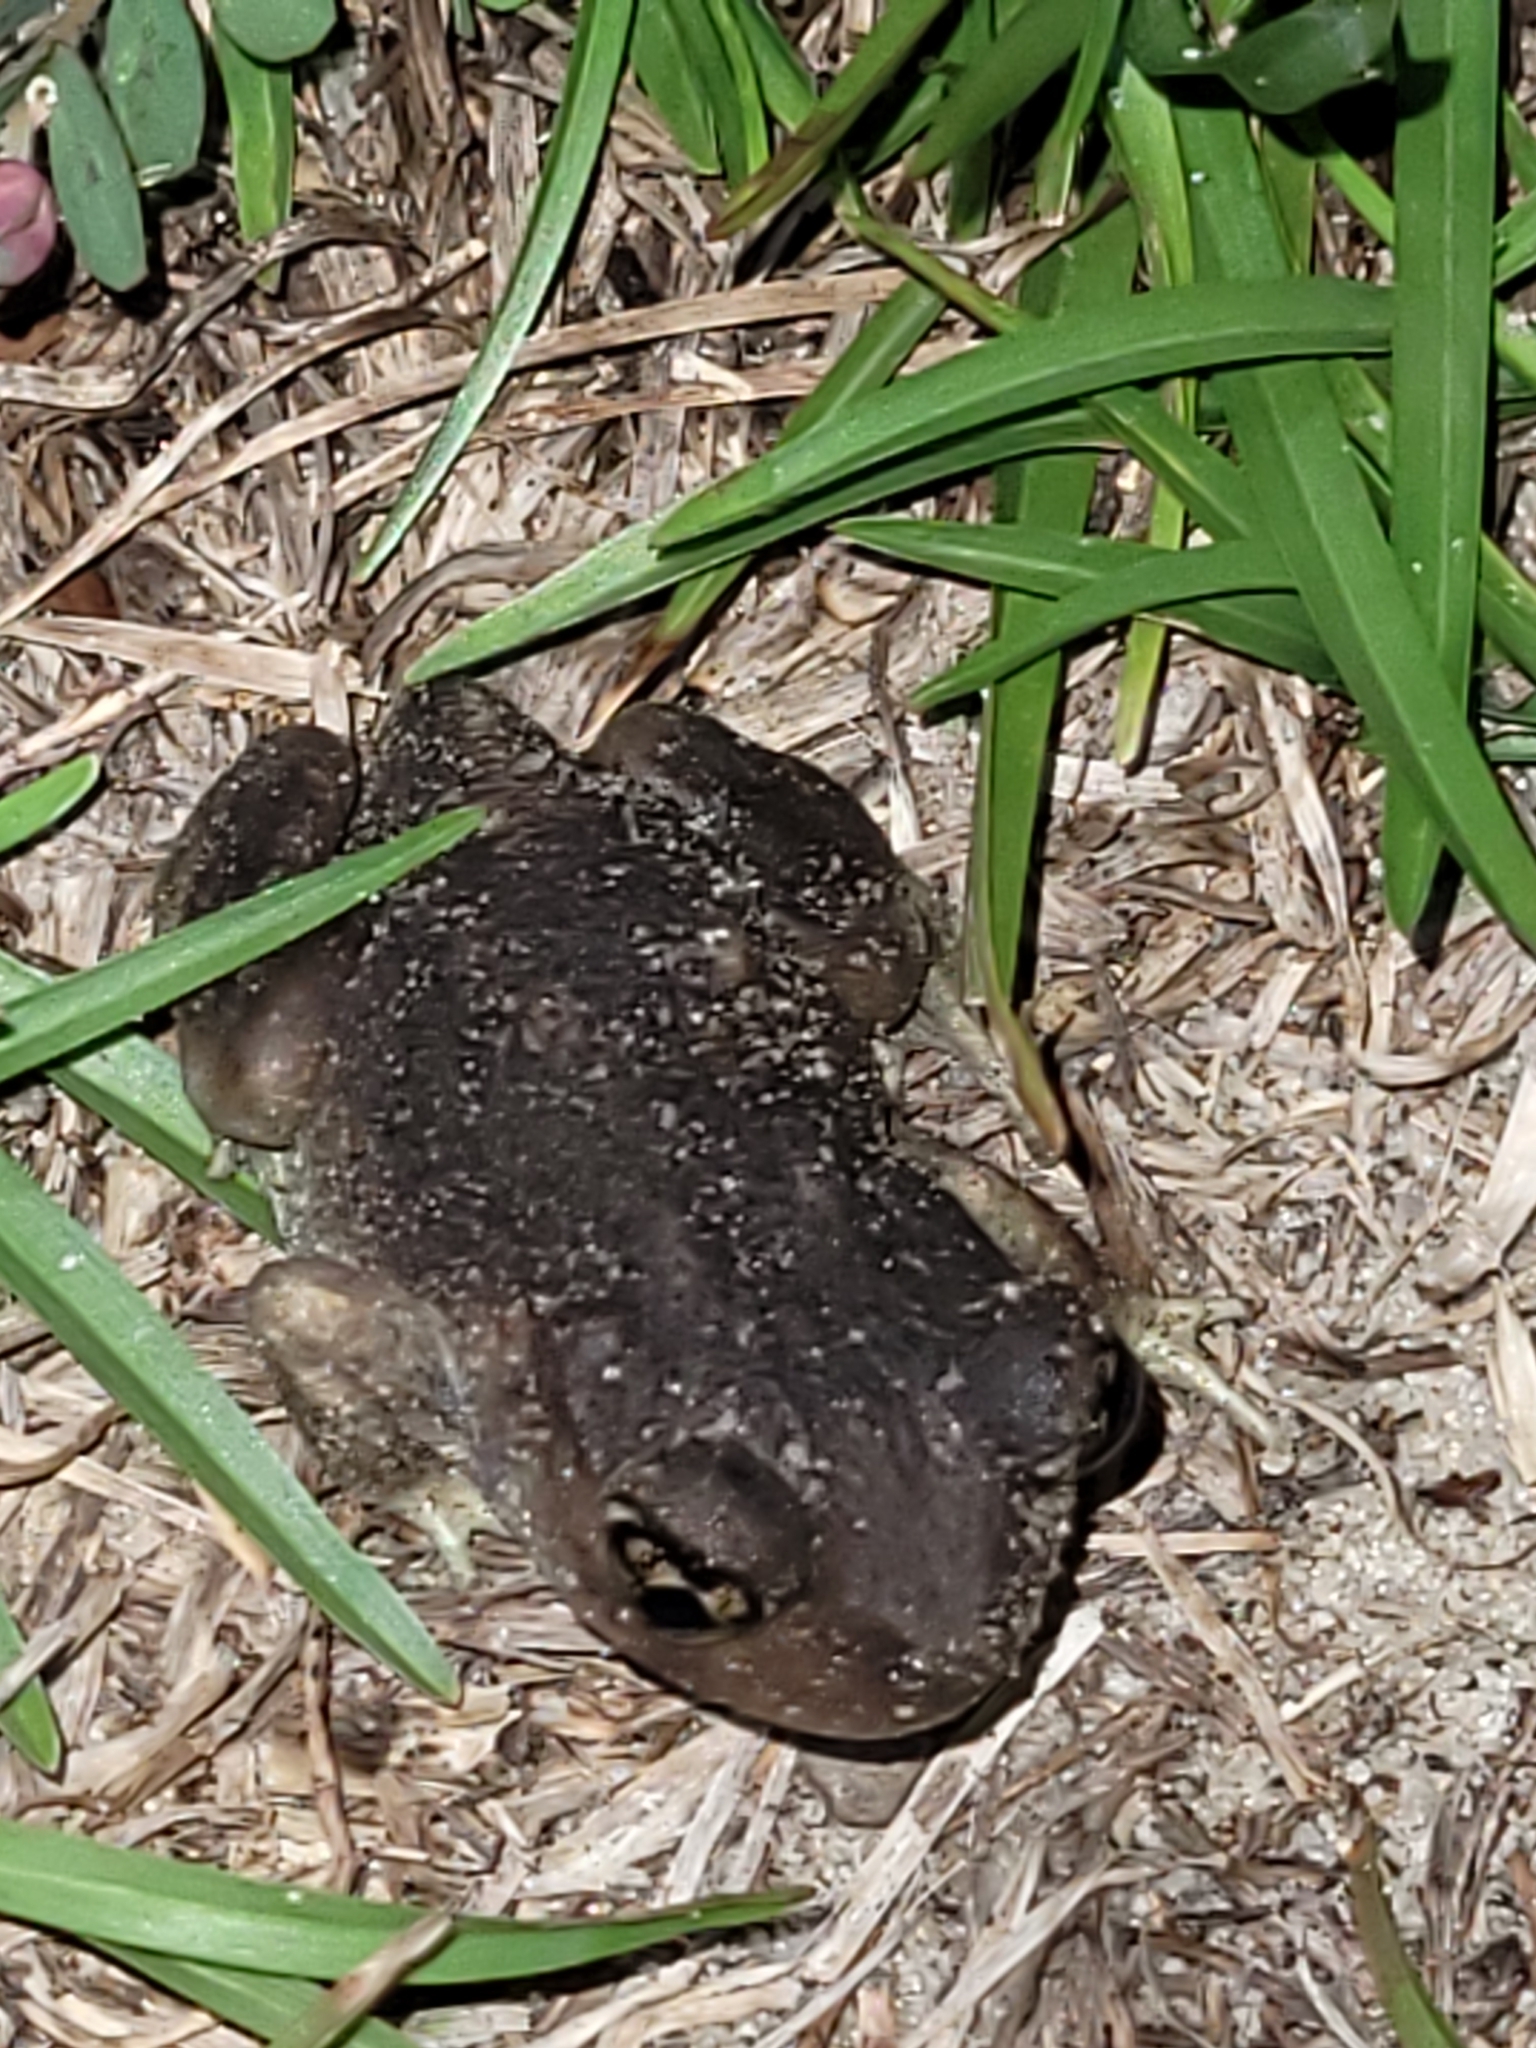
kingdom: Animalia
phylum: Chordata
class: Amphibia
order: Anura
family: Scaphiopodidae
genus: Scaphiopus
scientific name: Scaphiopus holbrookii
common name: Eastern spadefoot toad
